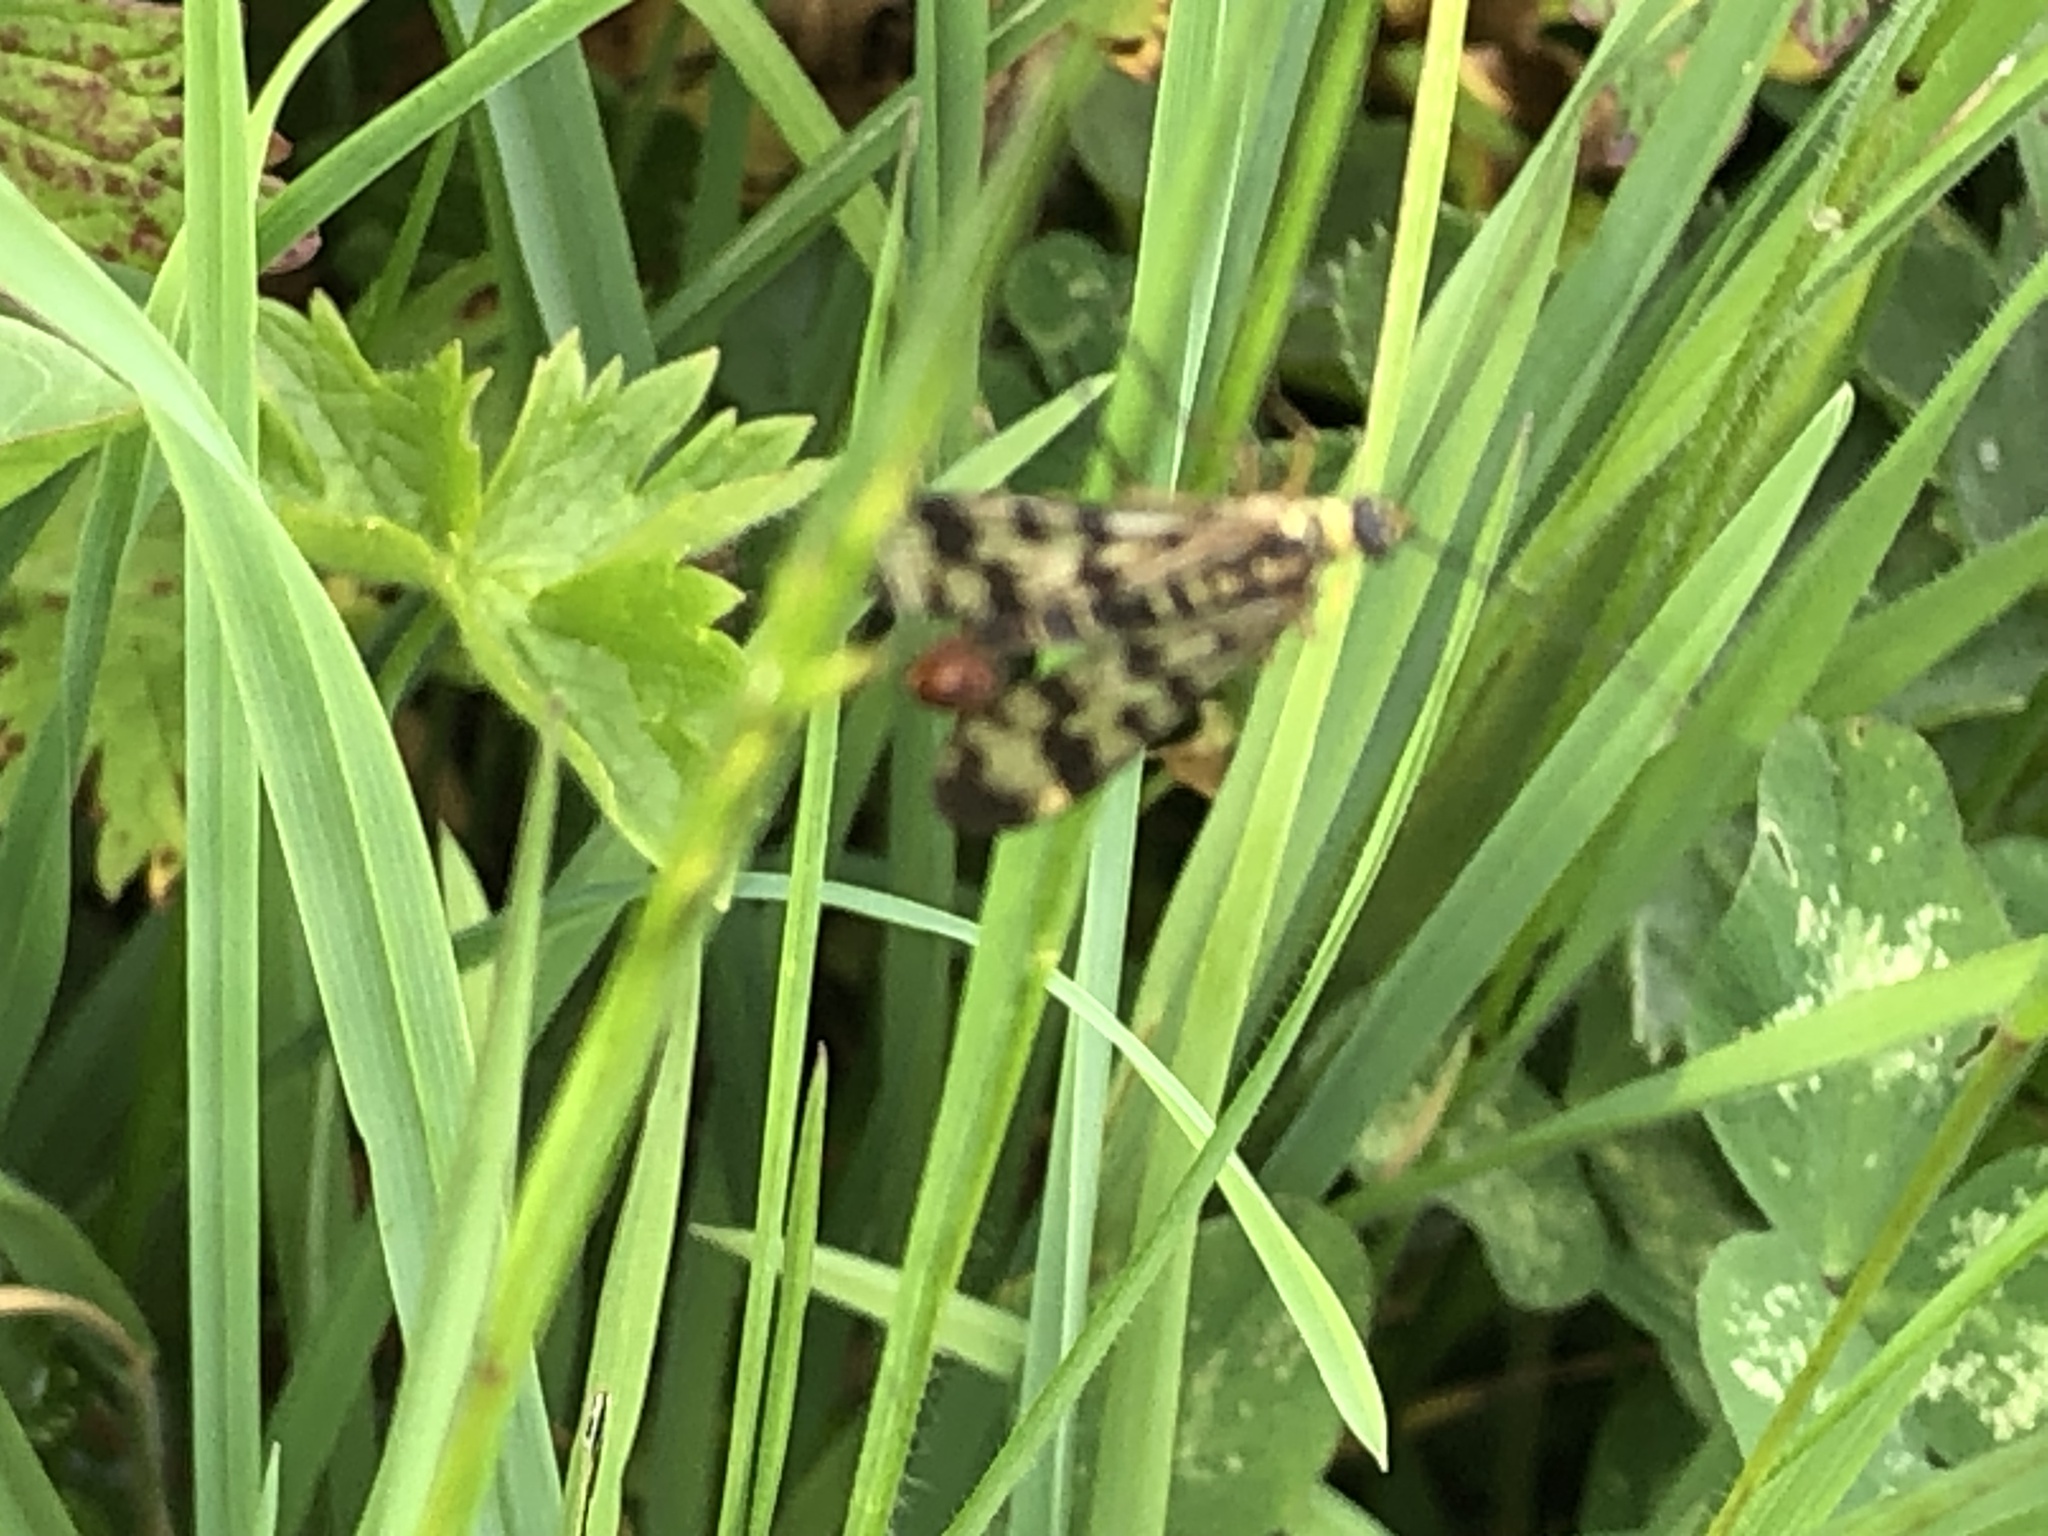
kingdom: Animalia
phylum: Arthropoda
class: Insecta
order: Mecoptera
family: Panorpidae
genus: Panorpa
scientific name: Panorpa communis
